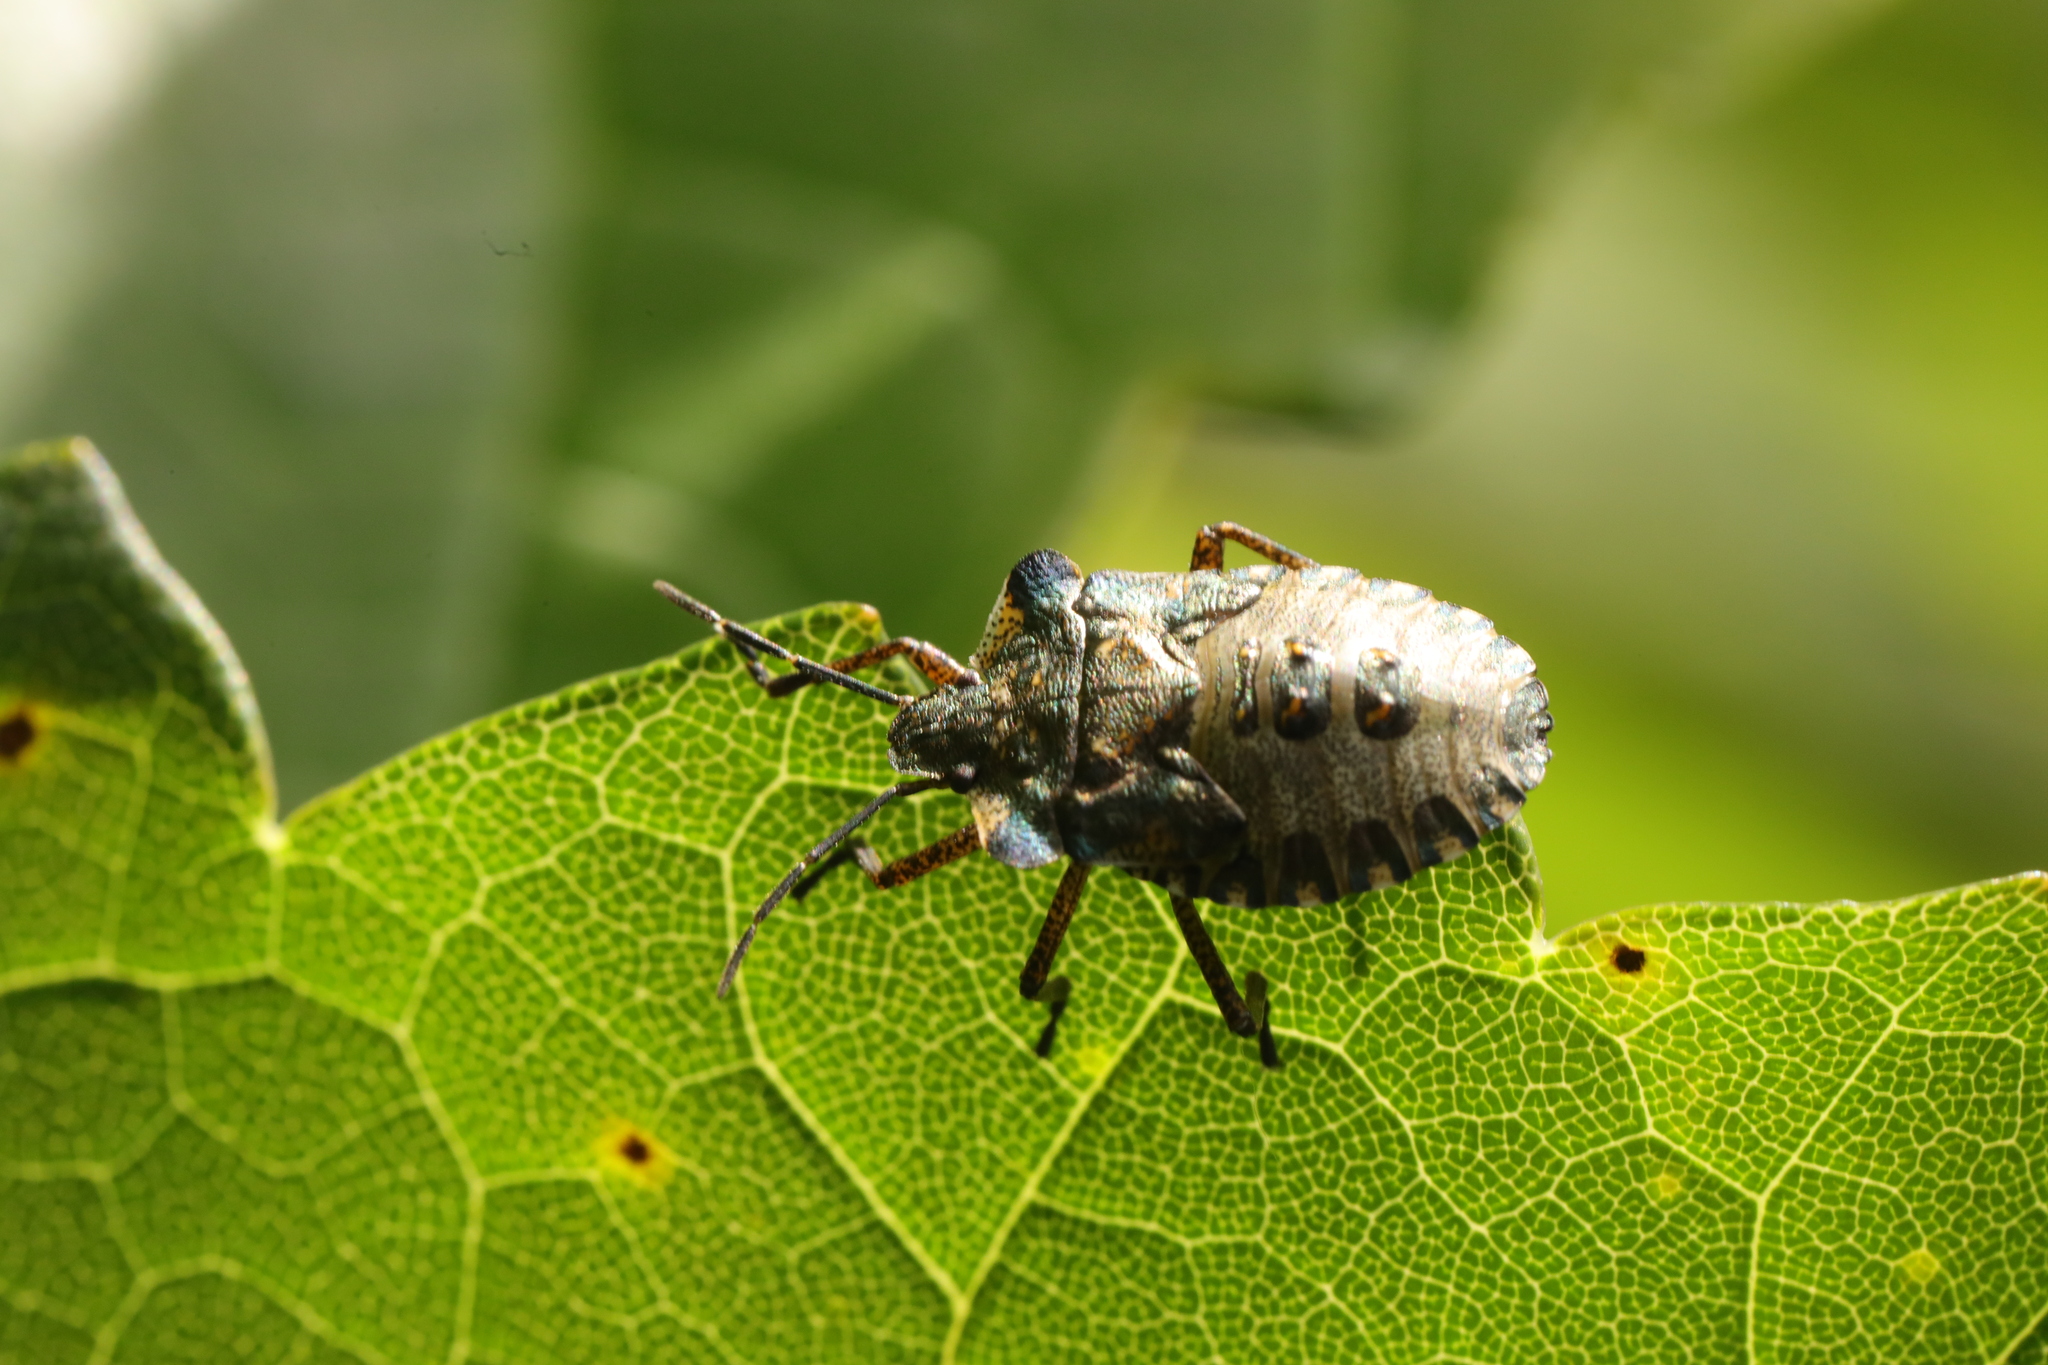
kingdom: Animalia
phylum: Arthropoda
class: Insecta
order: Hemiptera
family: Pentatomidae
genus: Pentatoma
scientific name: Pentatoma rufipes
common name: Forest bug
